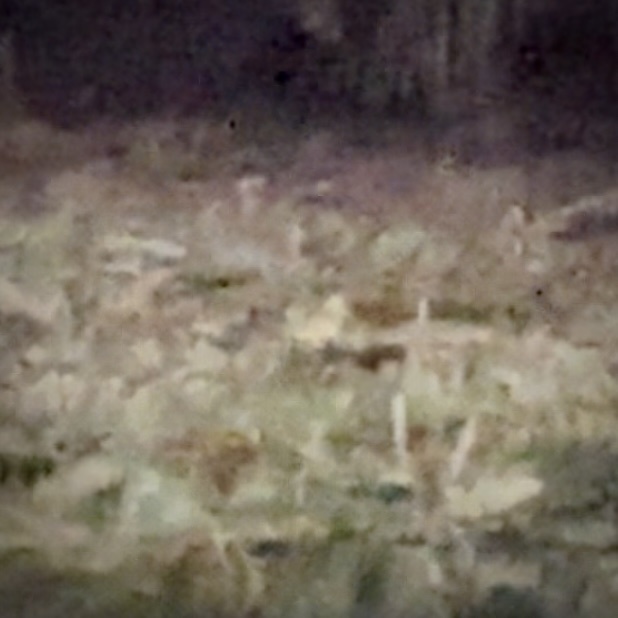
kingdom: Animalia
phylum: Chordata
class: Aves
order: Charadriiformes
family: Scolopacidae
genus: Scolopax
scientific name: Scolopax minor
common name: American woodcock
